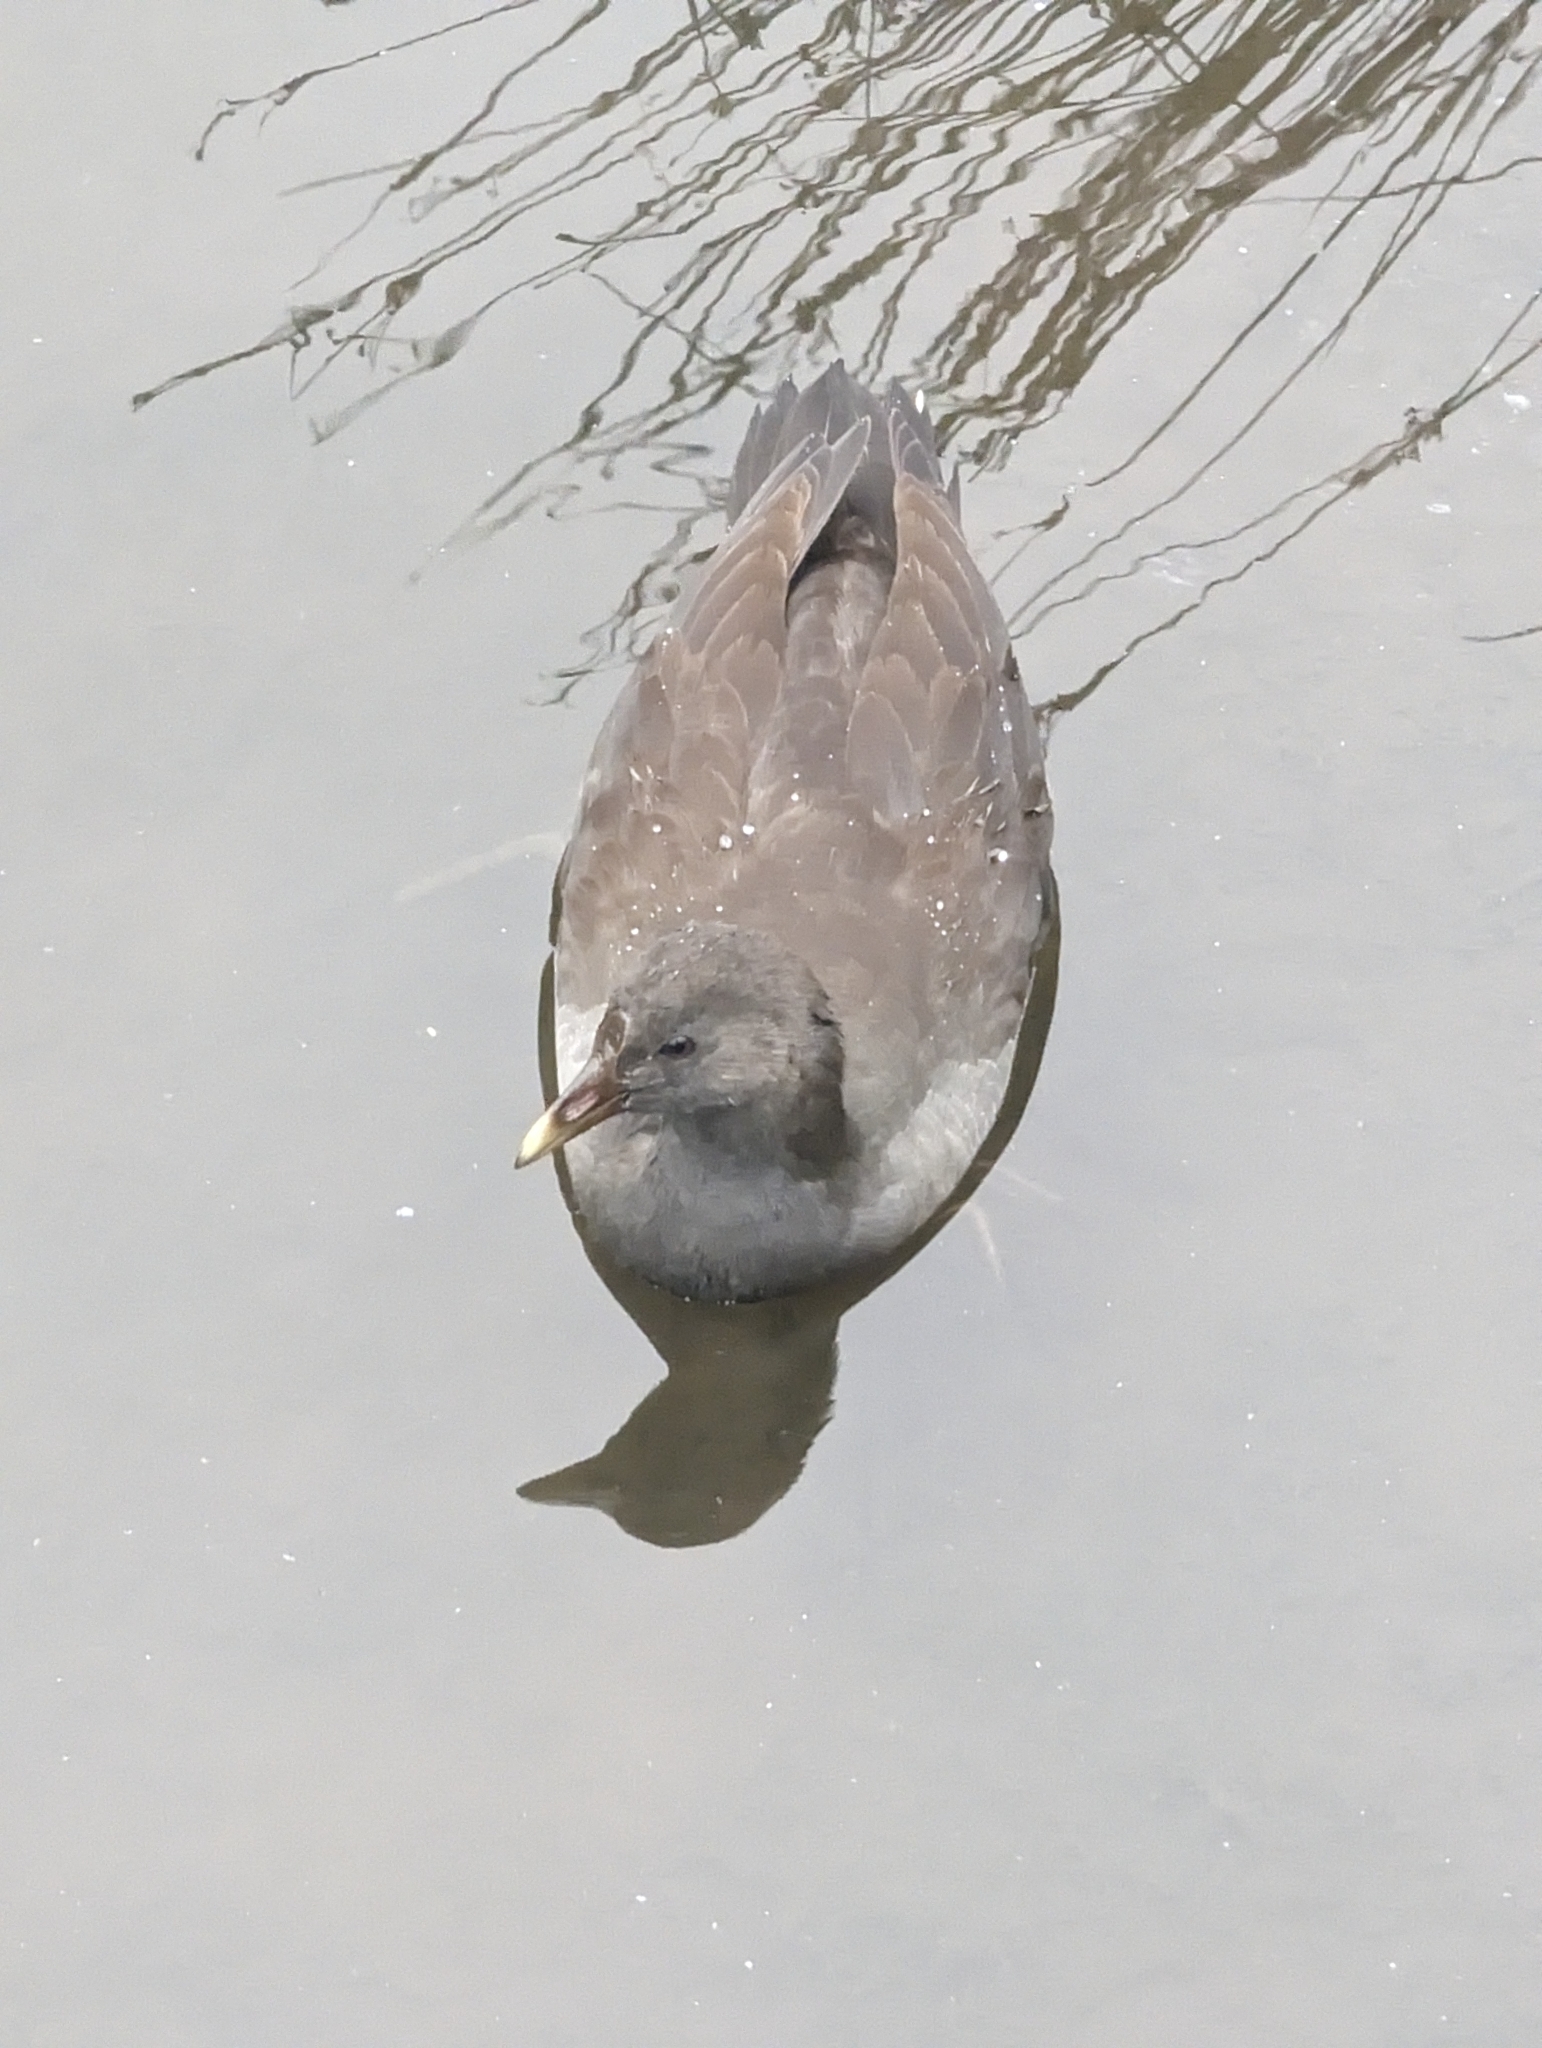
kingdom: Animalia
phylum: Chordata
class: Aves
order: Gruiformes
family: Rallidae
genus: Gallinula
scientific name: Gallinula tenebrosa
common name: Dusky moorhen
